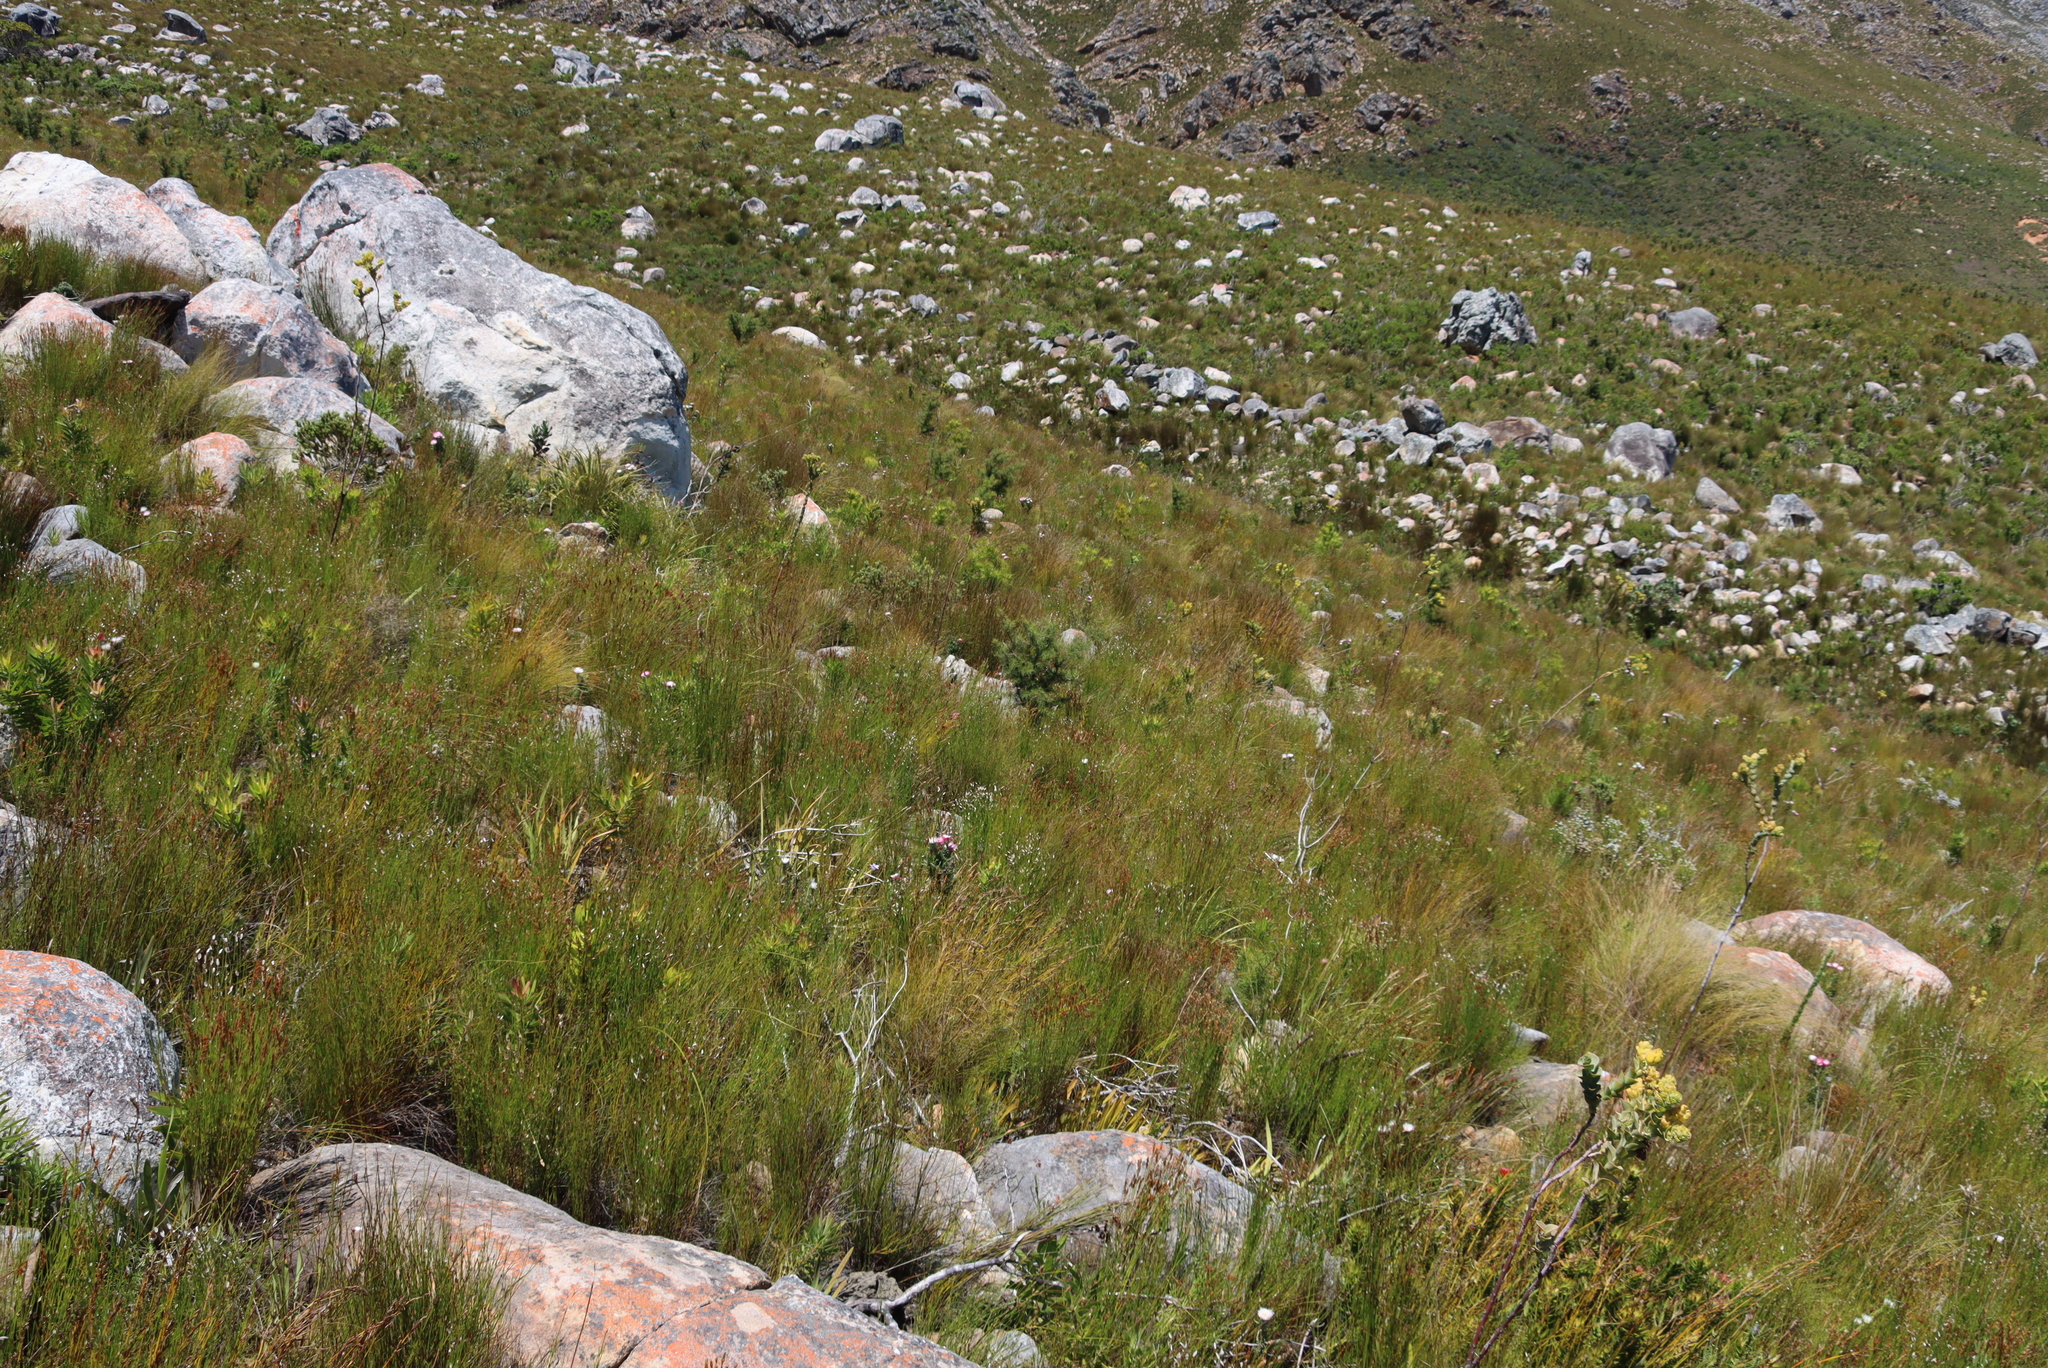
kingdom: Plantae
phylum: Tracheophyta
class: Magnoliopsida
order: Proteales
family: Proteaceae
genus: Hakea
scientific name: Hakea sericea
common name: Needle bush
